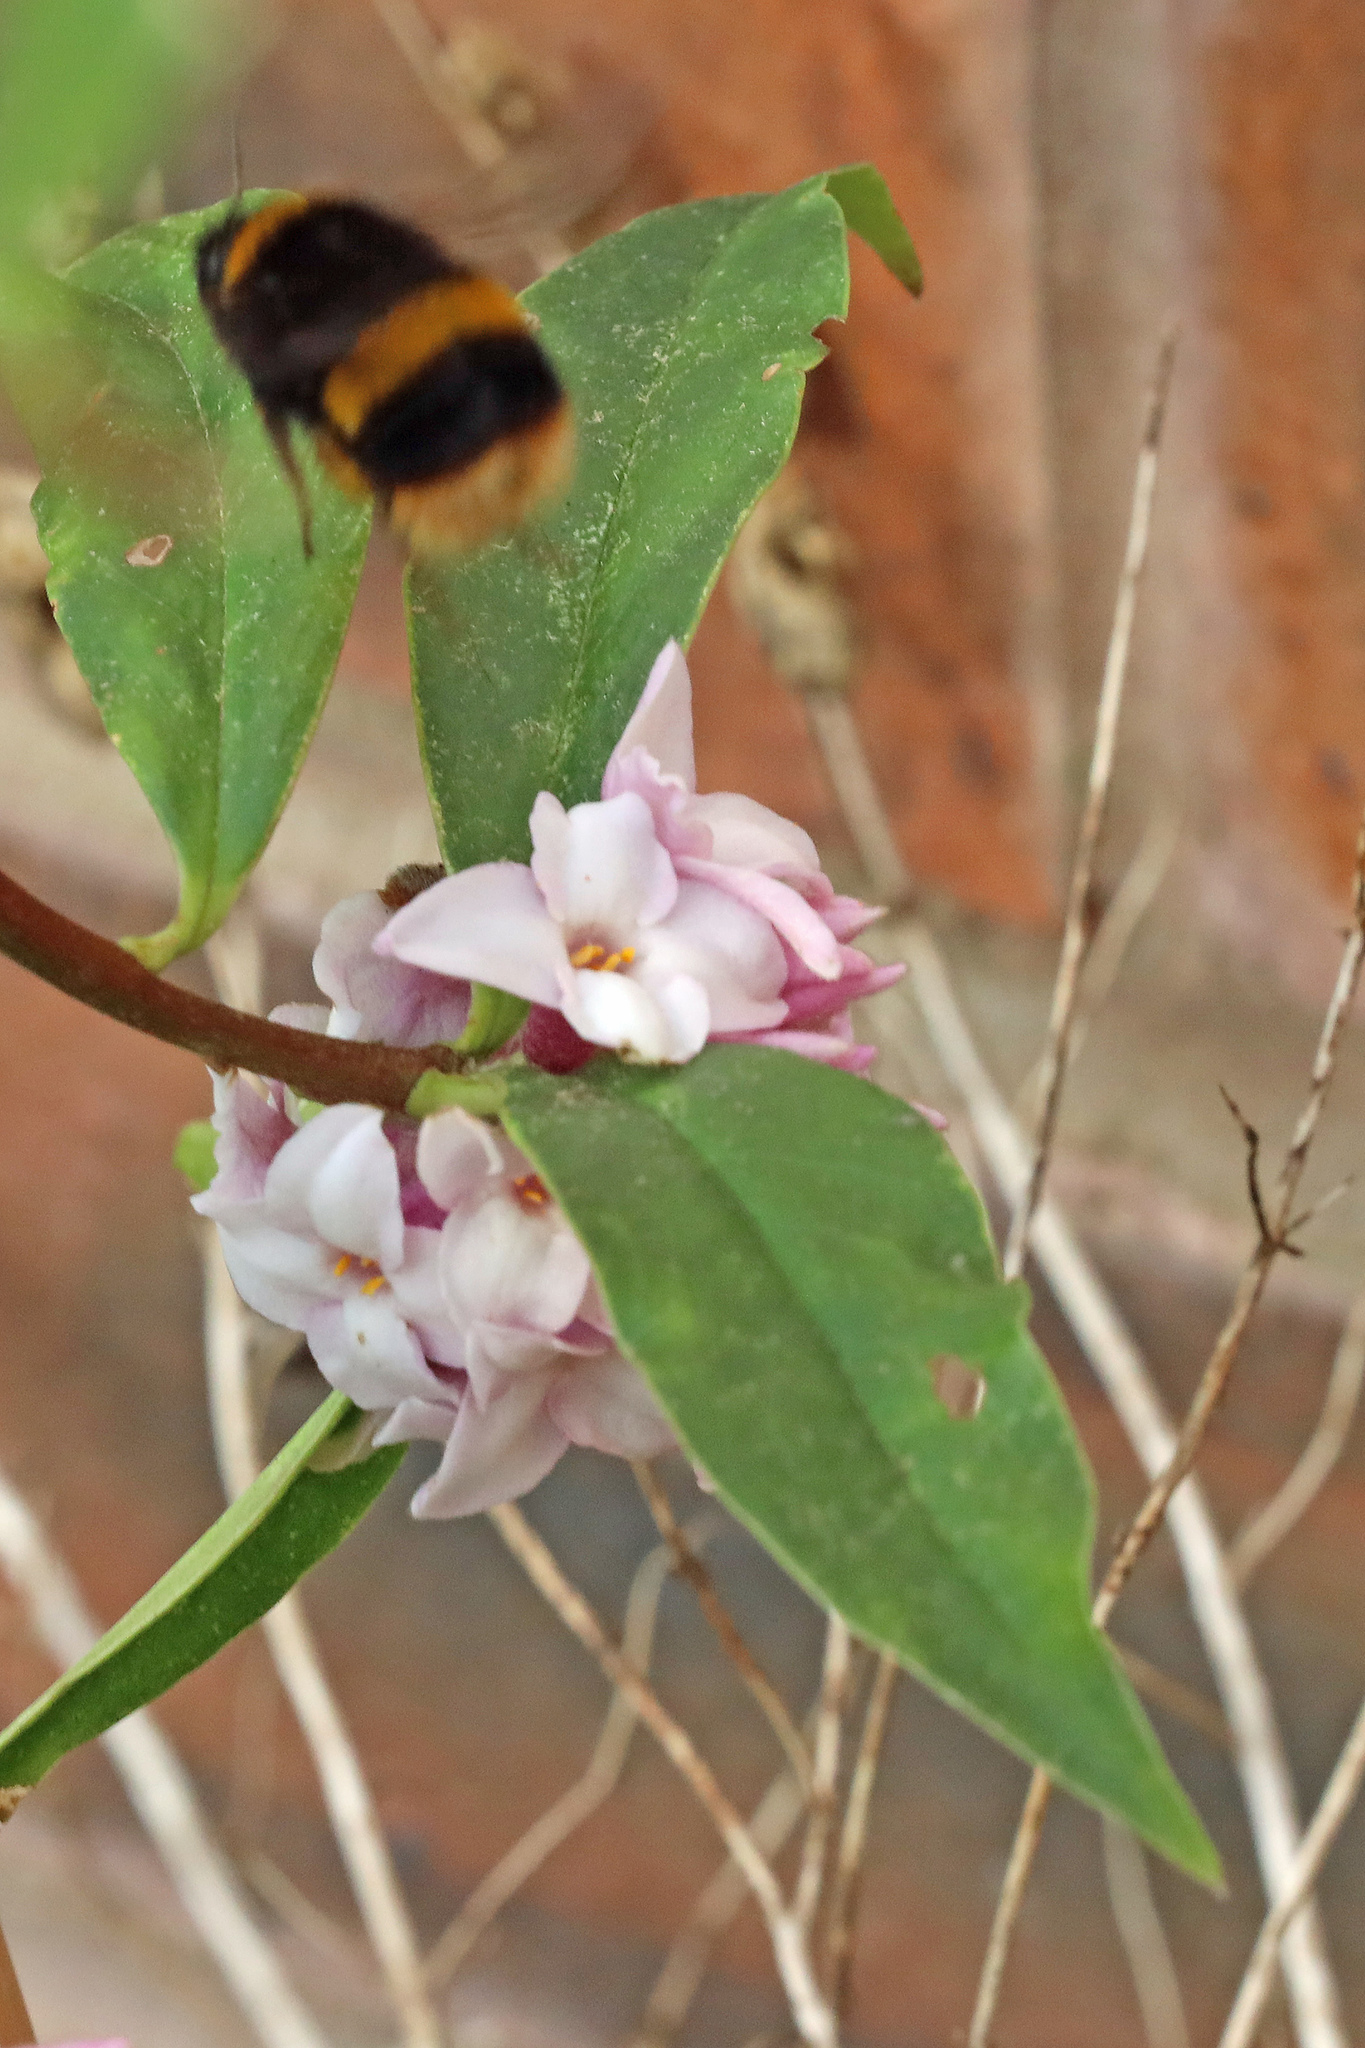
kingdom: Animalia
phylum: Arthropoda
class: Insecta
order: Hymenoptera
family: Apidae
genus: Bombus
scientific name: Bombus terrestris
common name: Buff-tailed bumblebee
